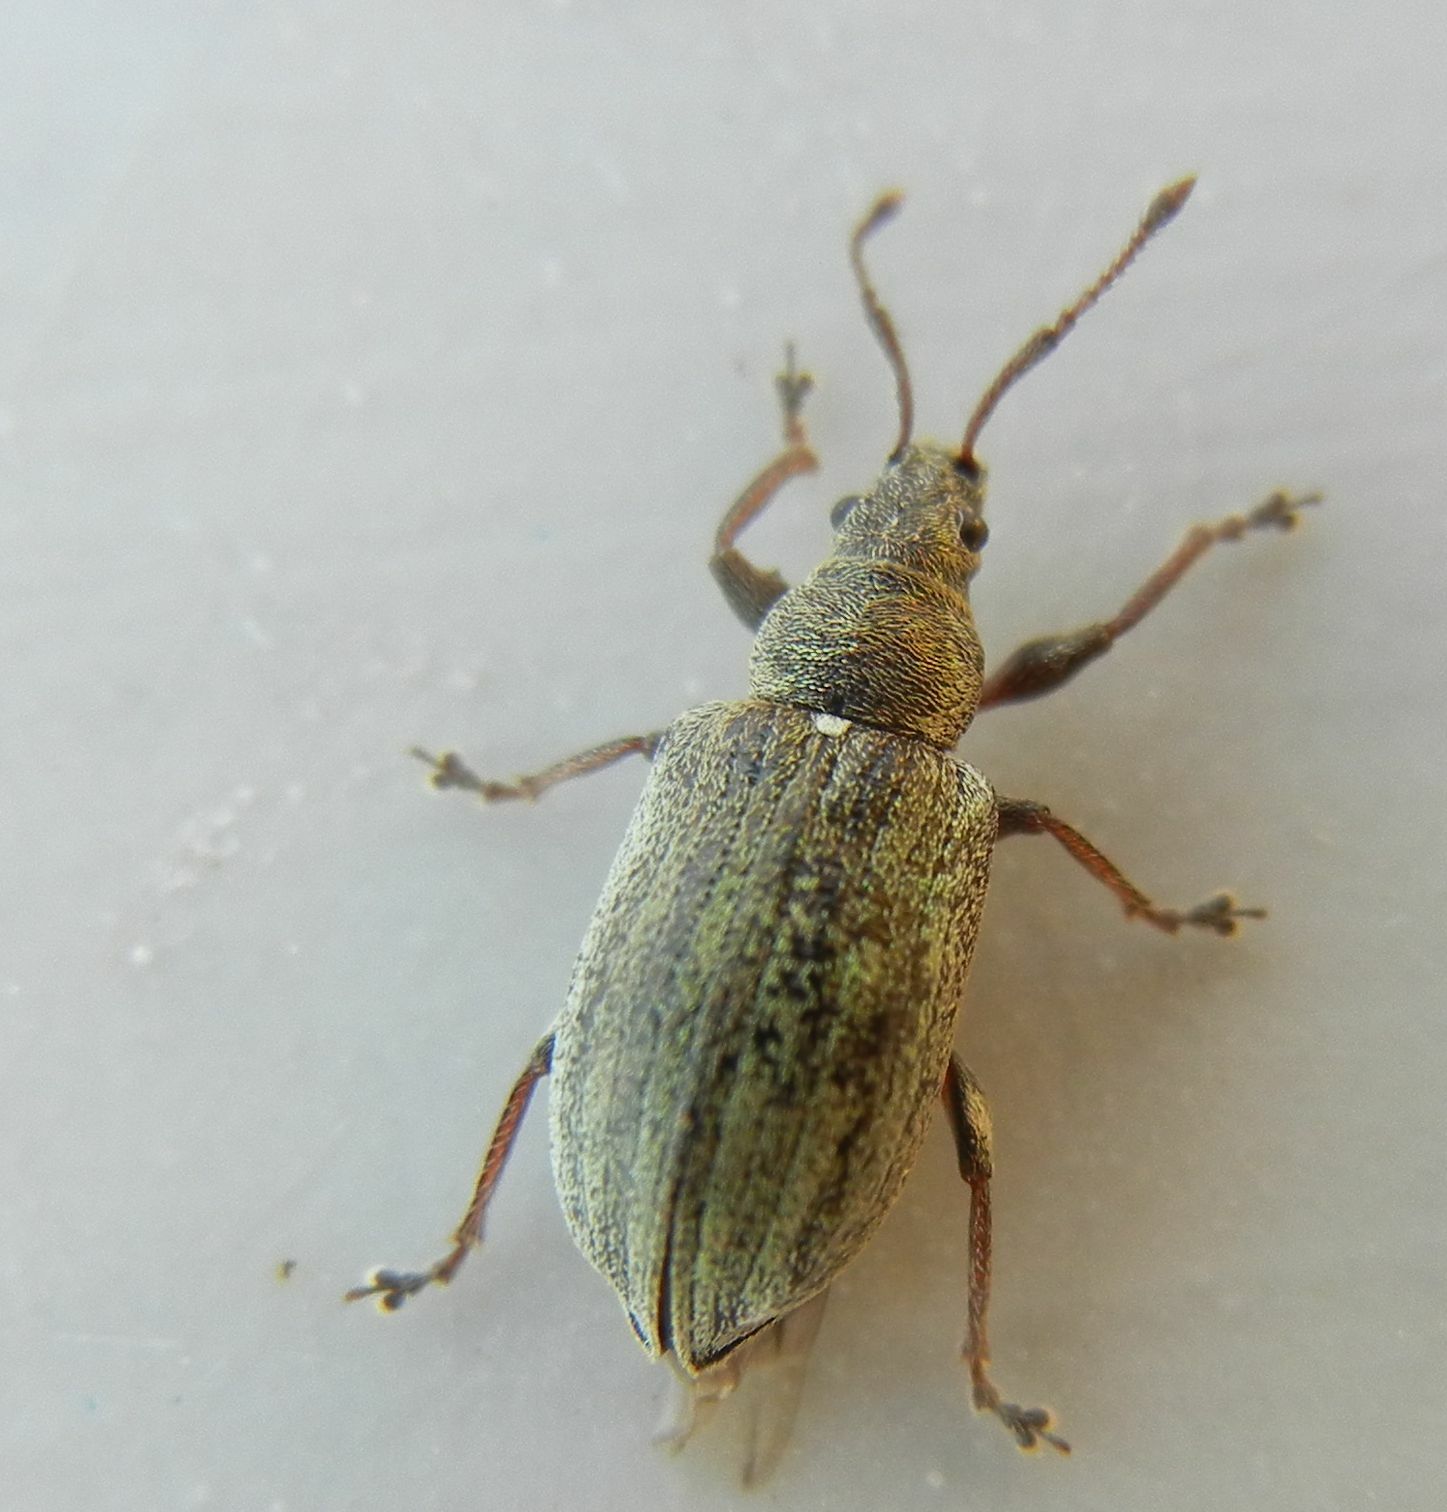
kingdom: Animalia
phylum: Arthropoda
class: Insecta
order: Coleoptera
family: Curculionidae
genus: Phyllobius
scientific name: Phyllobius pyri
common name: Common leaf weevil
